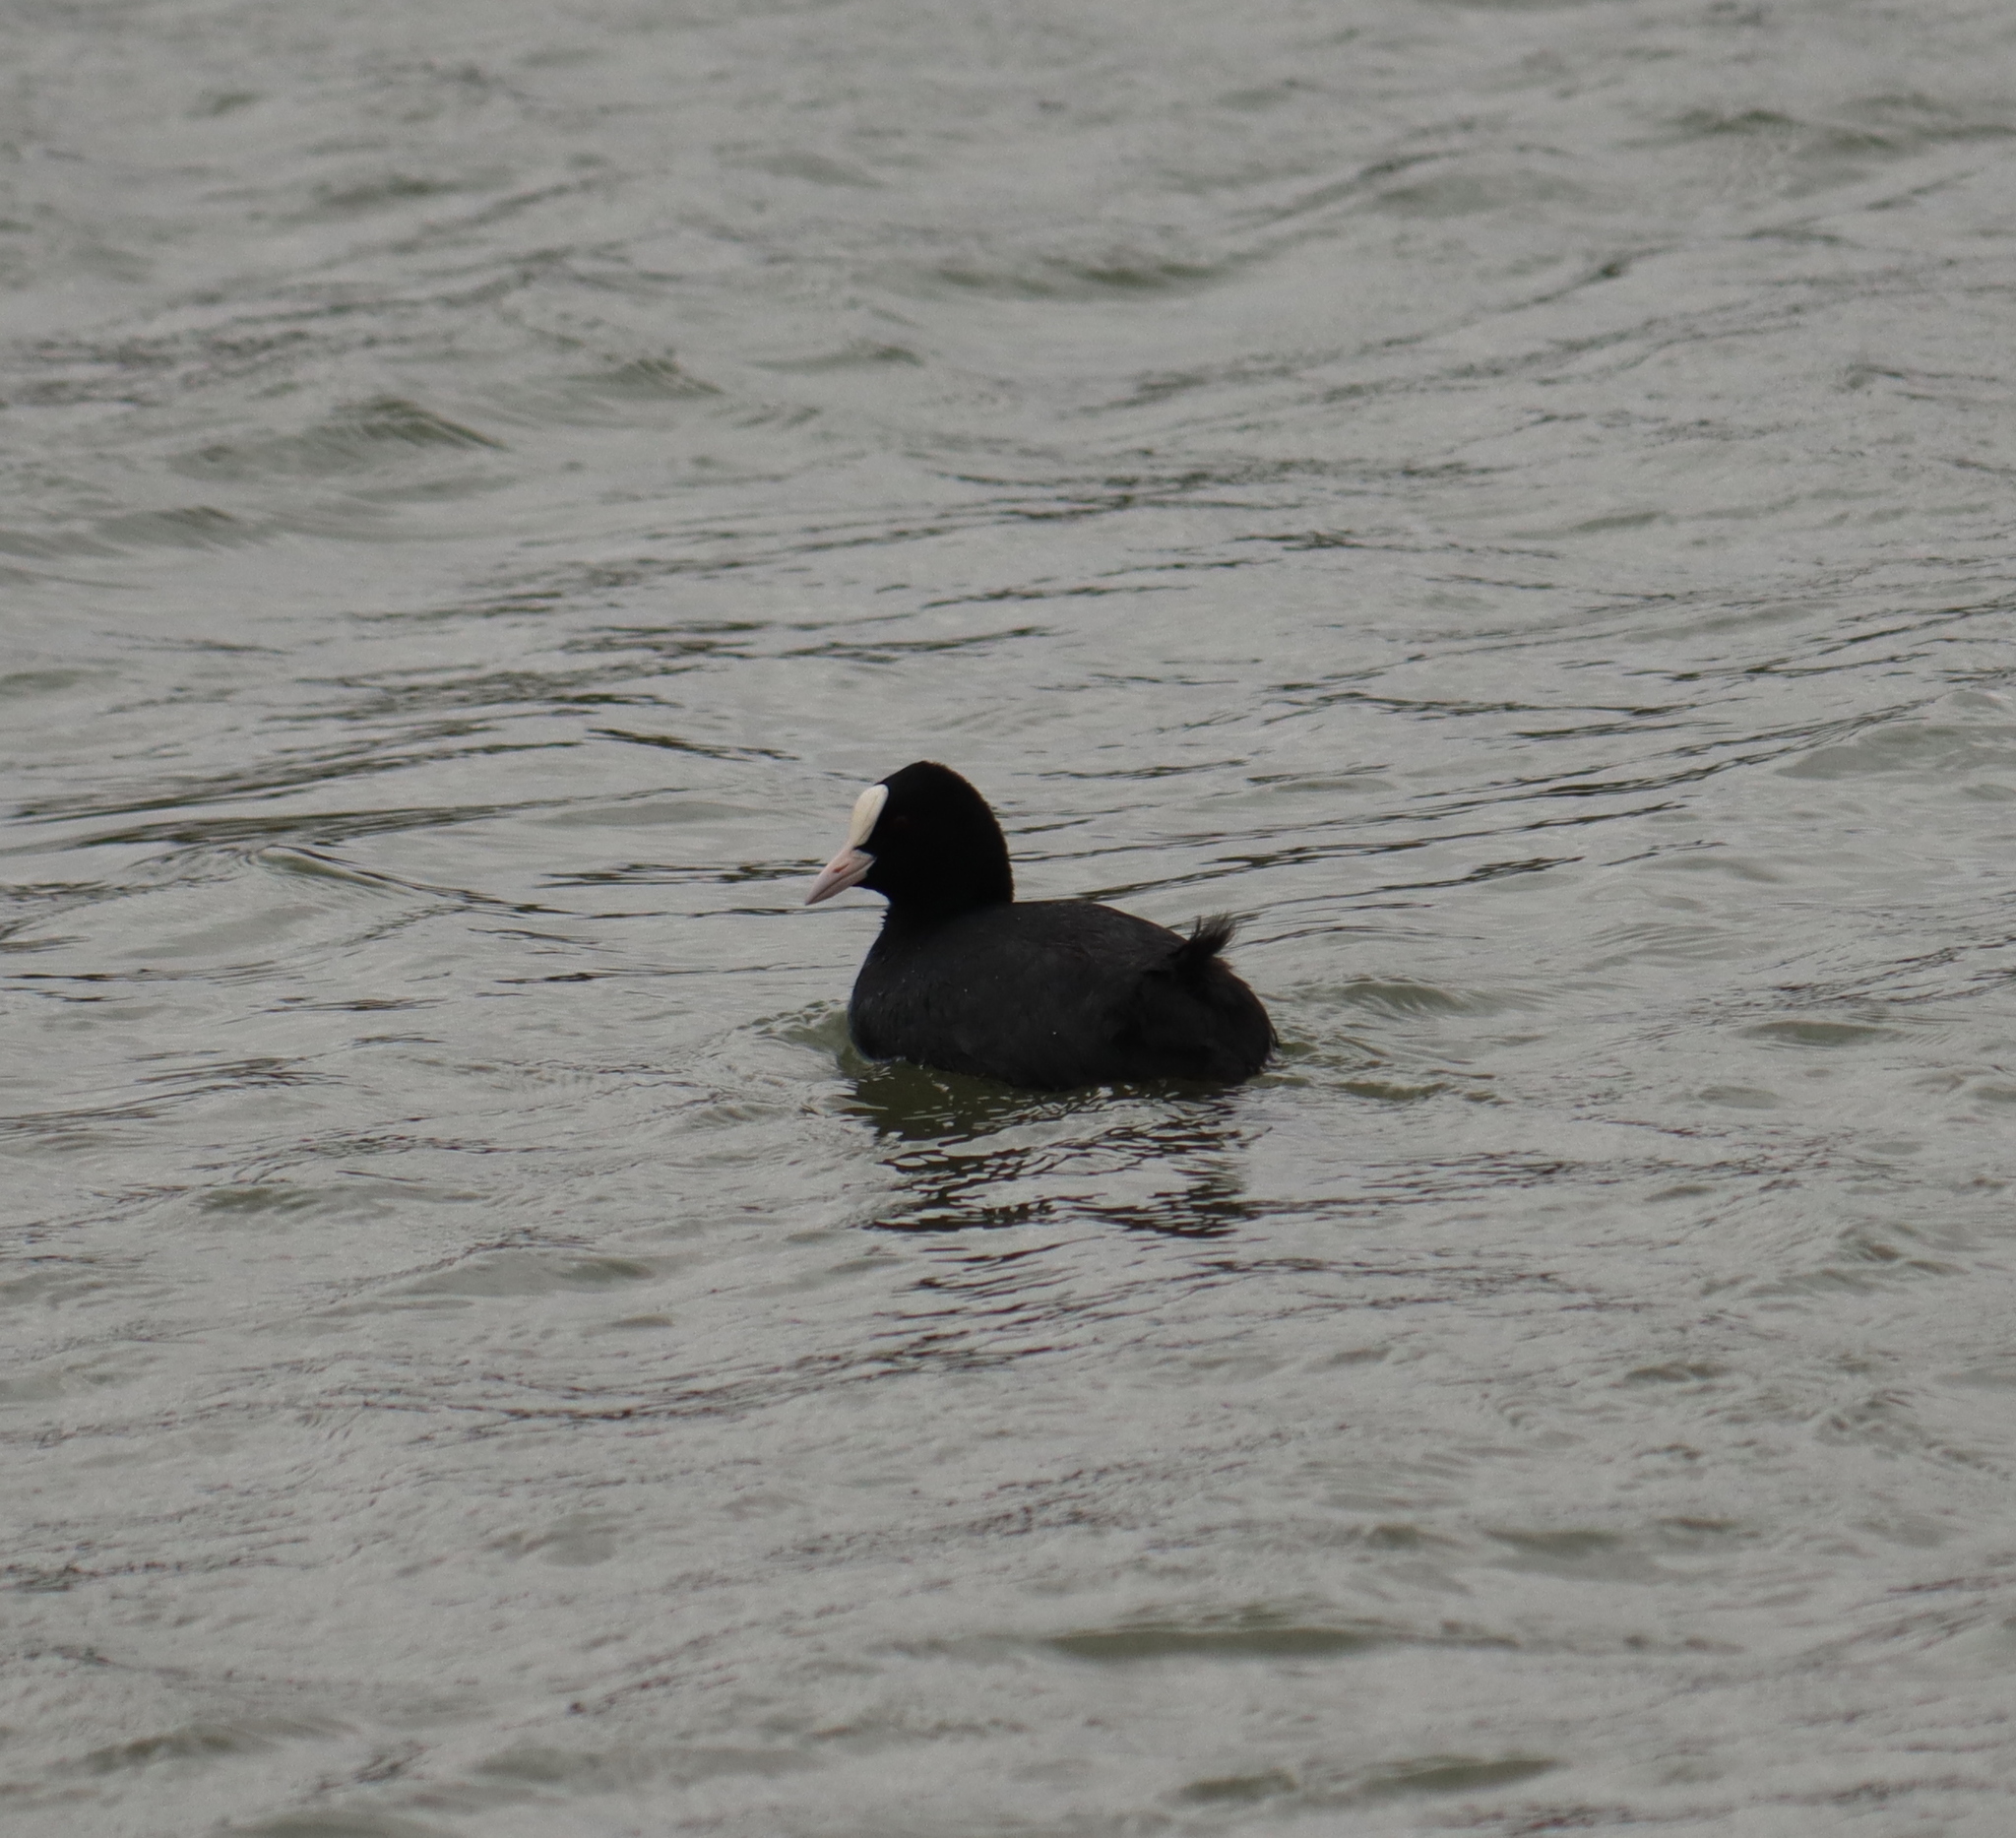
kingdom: Animalia
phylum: Chordata
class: Aves
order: Gruiformes
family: Rallidae
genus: Fulica
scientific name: Fulica atra
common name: Eurasian coot
